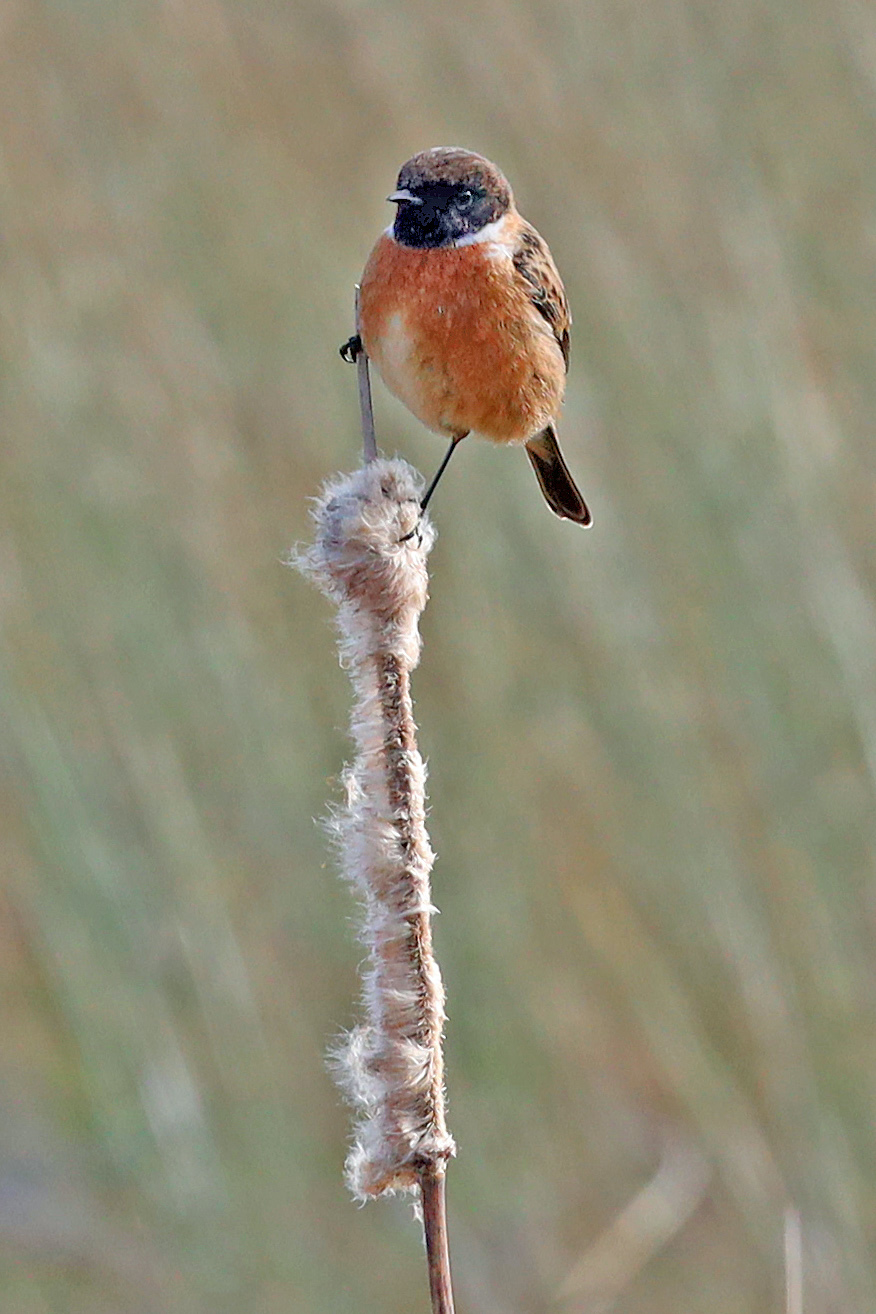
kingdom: Animalia
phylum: Chordata
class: Aves
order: Passeriformes
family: Muscicapidae
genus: Saxicola
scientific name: Saxicola rubicola
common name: European stonechat
